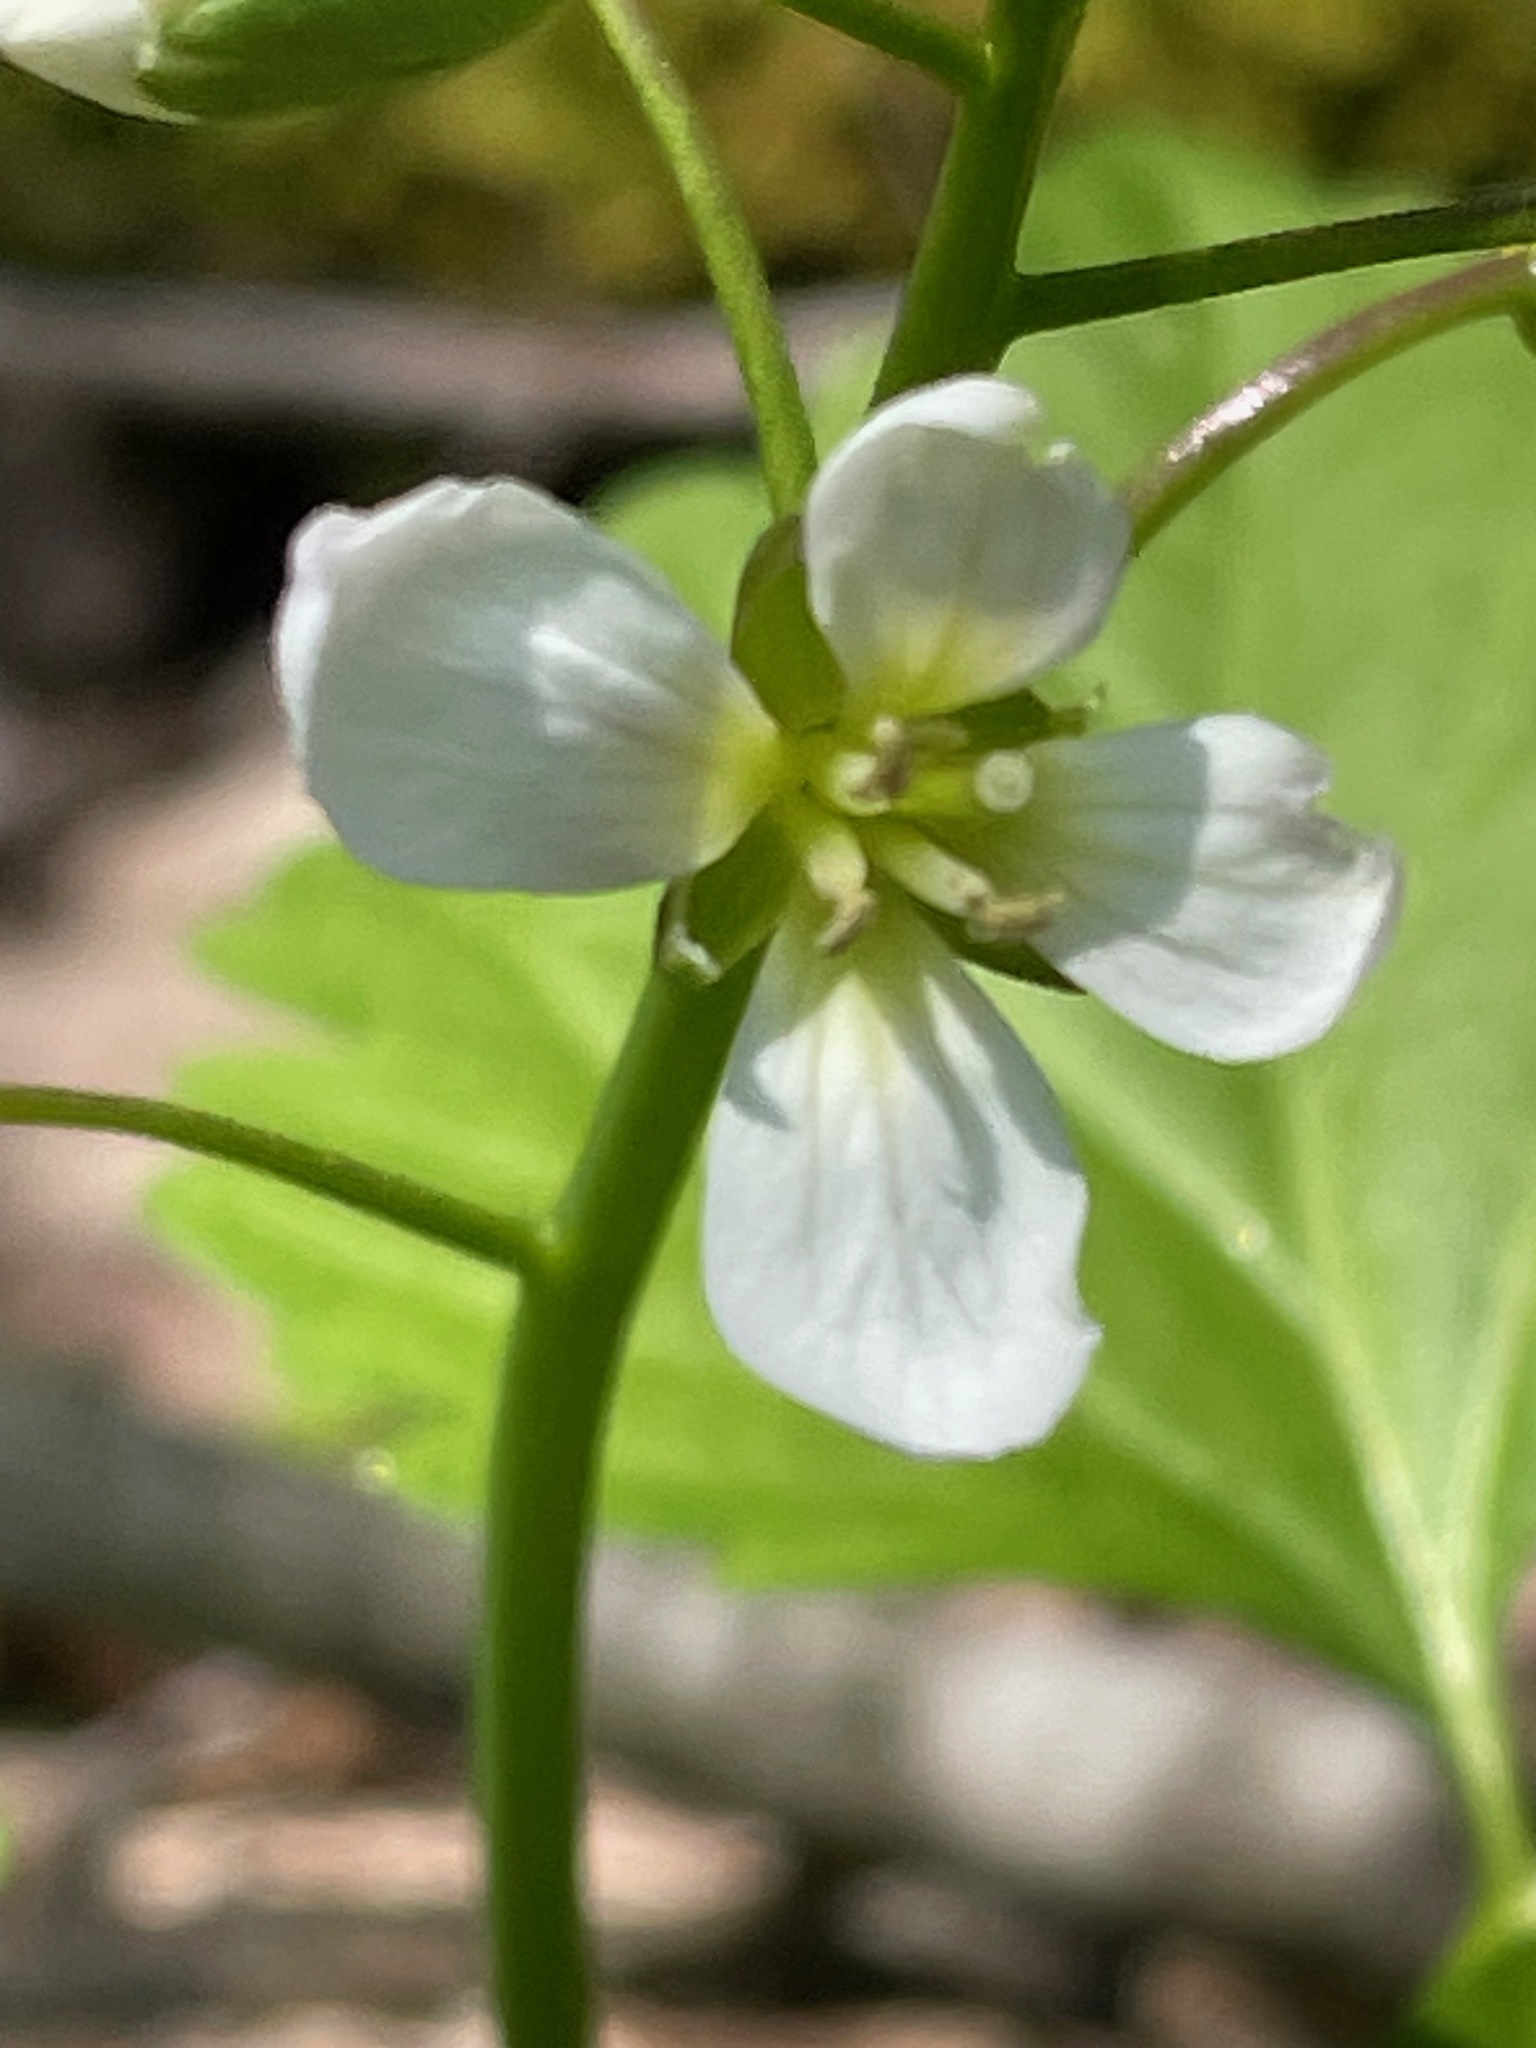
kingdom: Plantae
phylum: Tracheophyta
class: Magnoliopsida
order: Brassicales
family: Brassicaceae
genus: Cardamine
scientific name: Cardamine diphylla
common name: Broad-leaved toothwort
